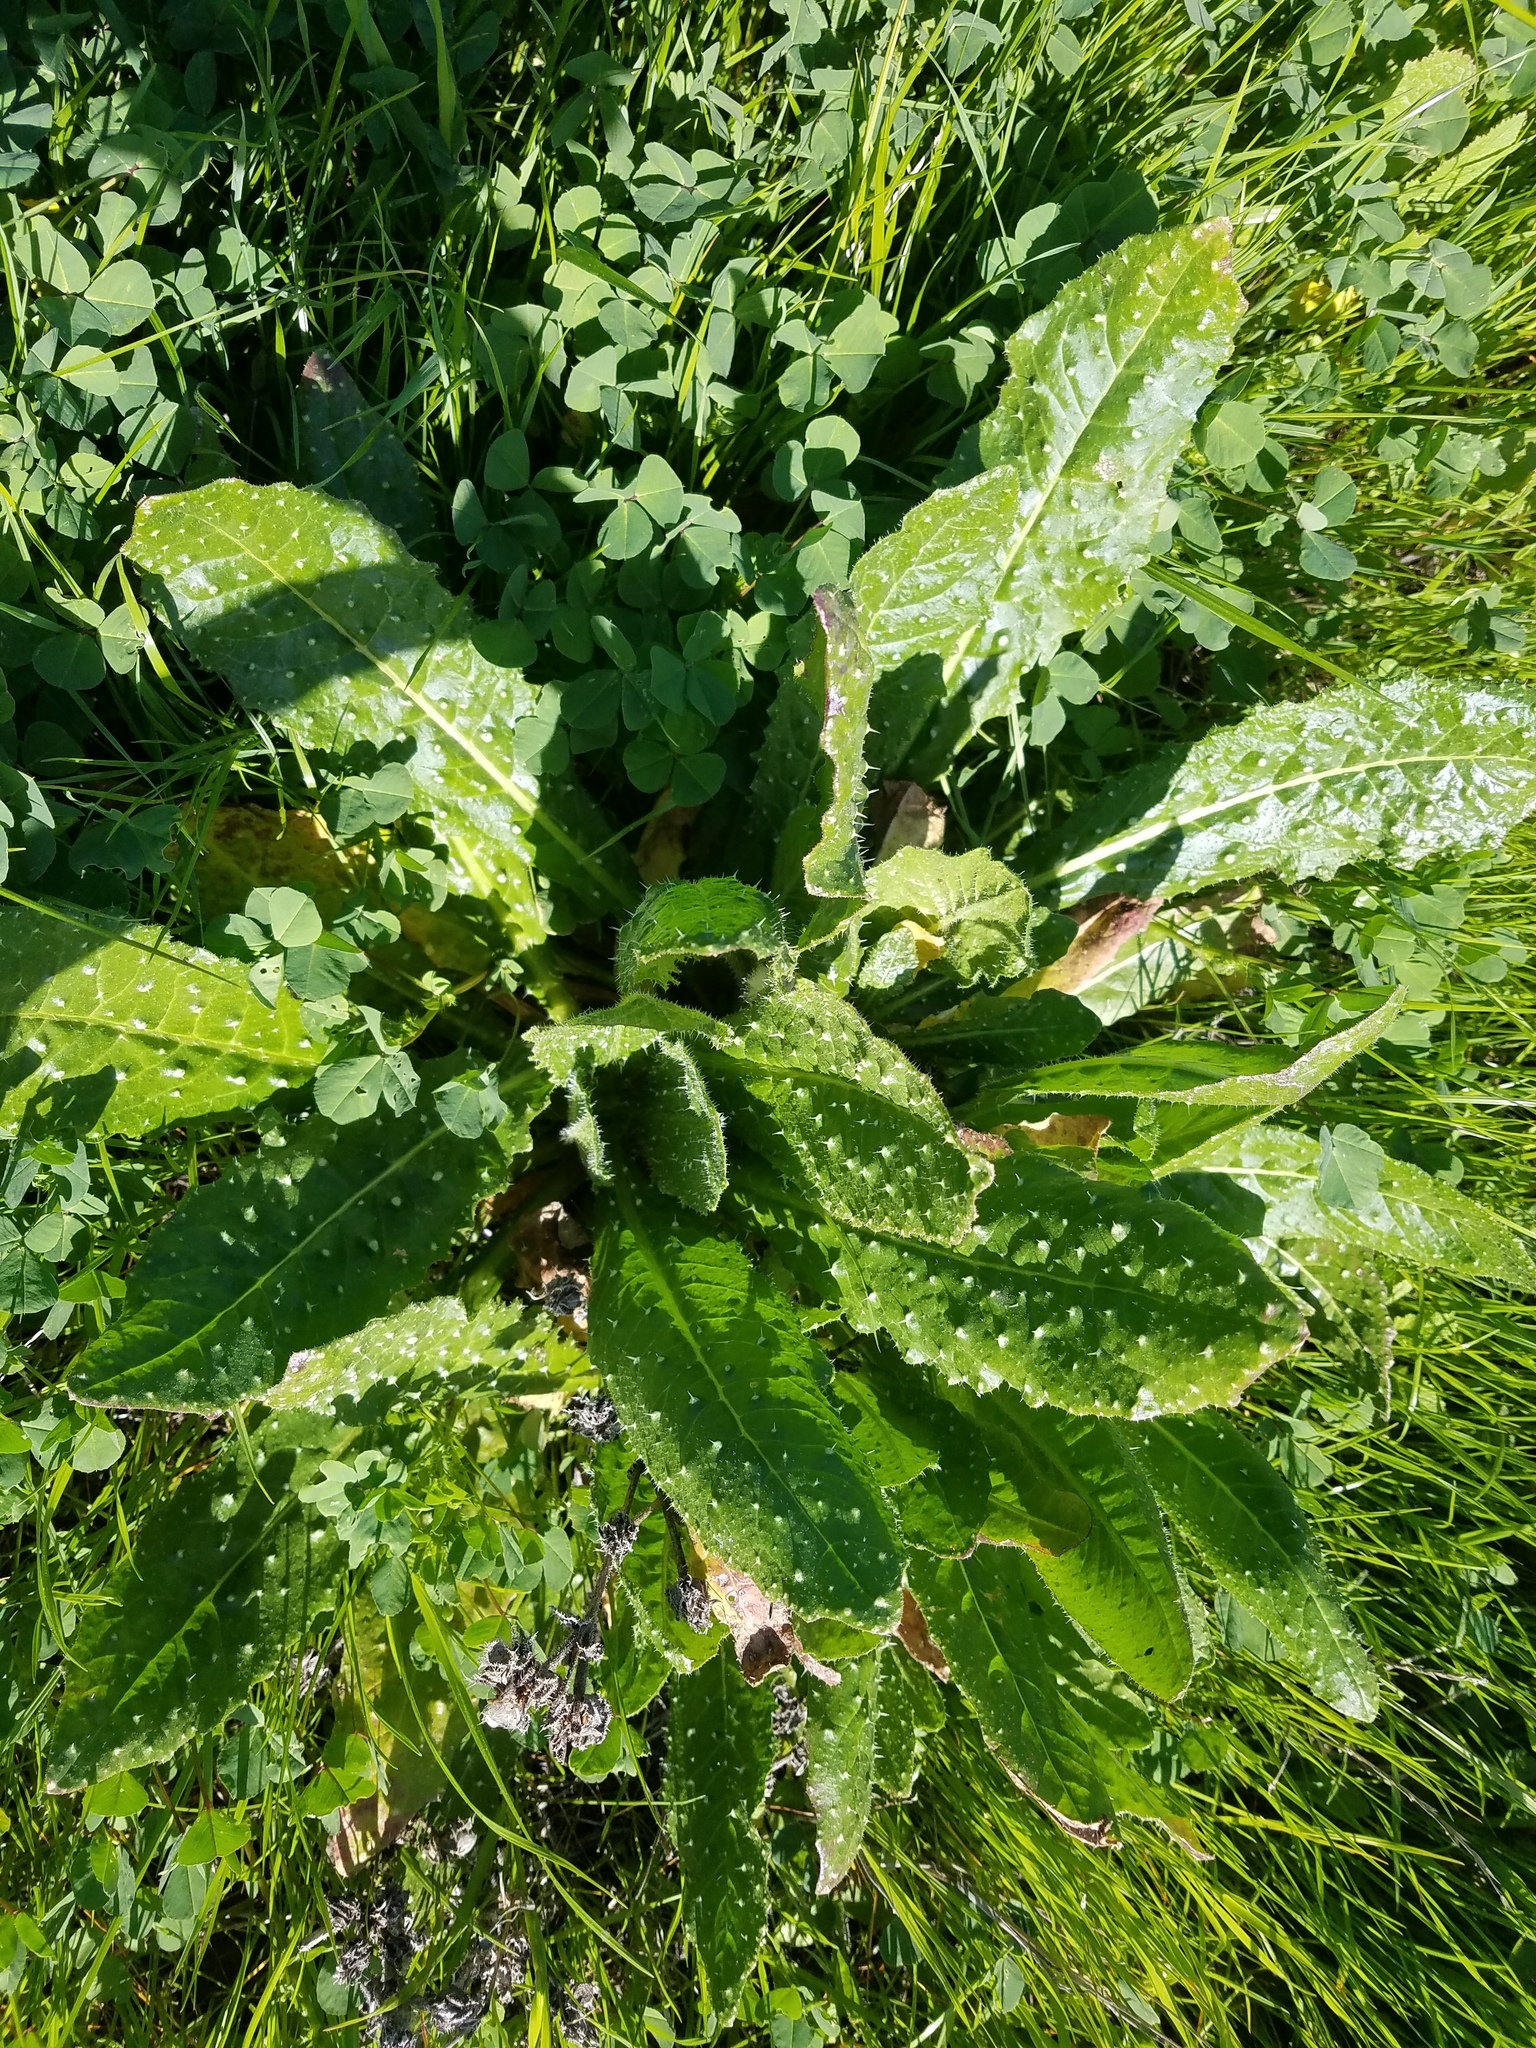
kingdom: Plantae
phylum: Tracheophyta
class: Magnoliopsida
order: Asterales
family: Asteraceae
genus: Helminthotheca
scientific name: Helminthotheca echioides
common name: Ox-tongue
